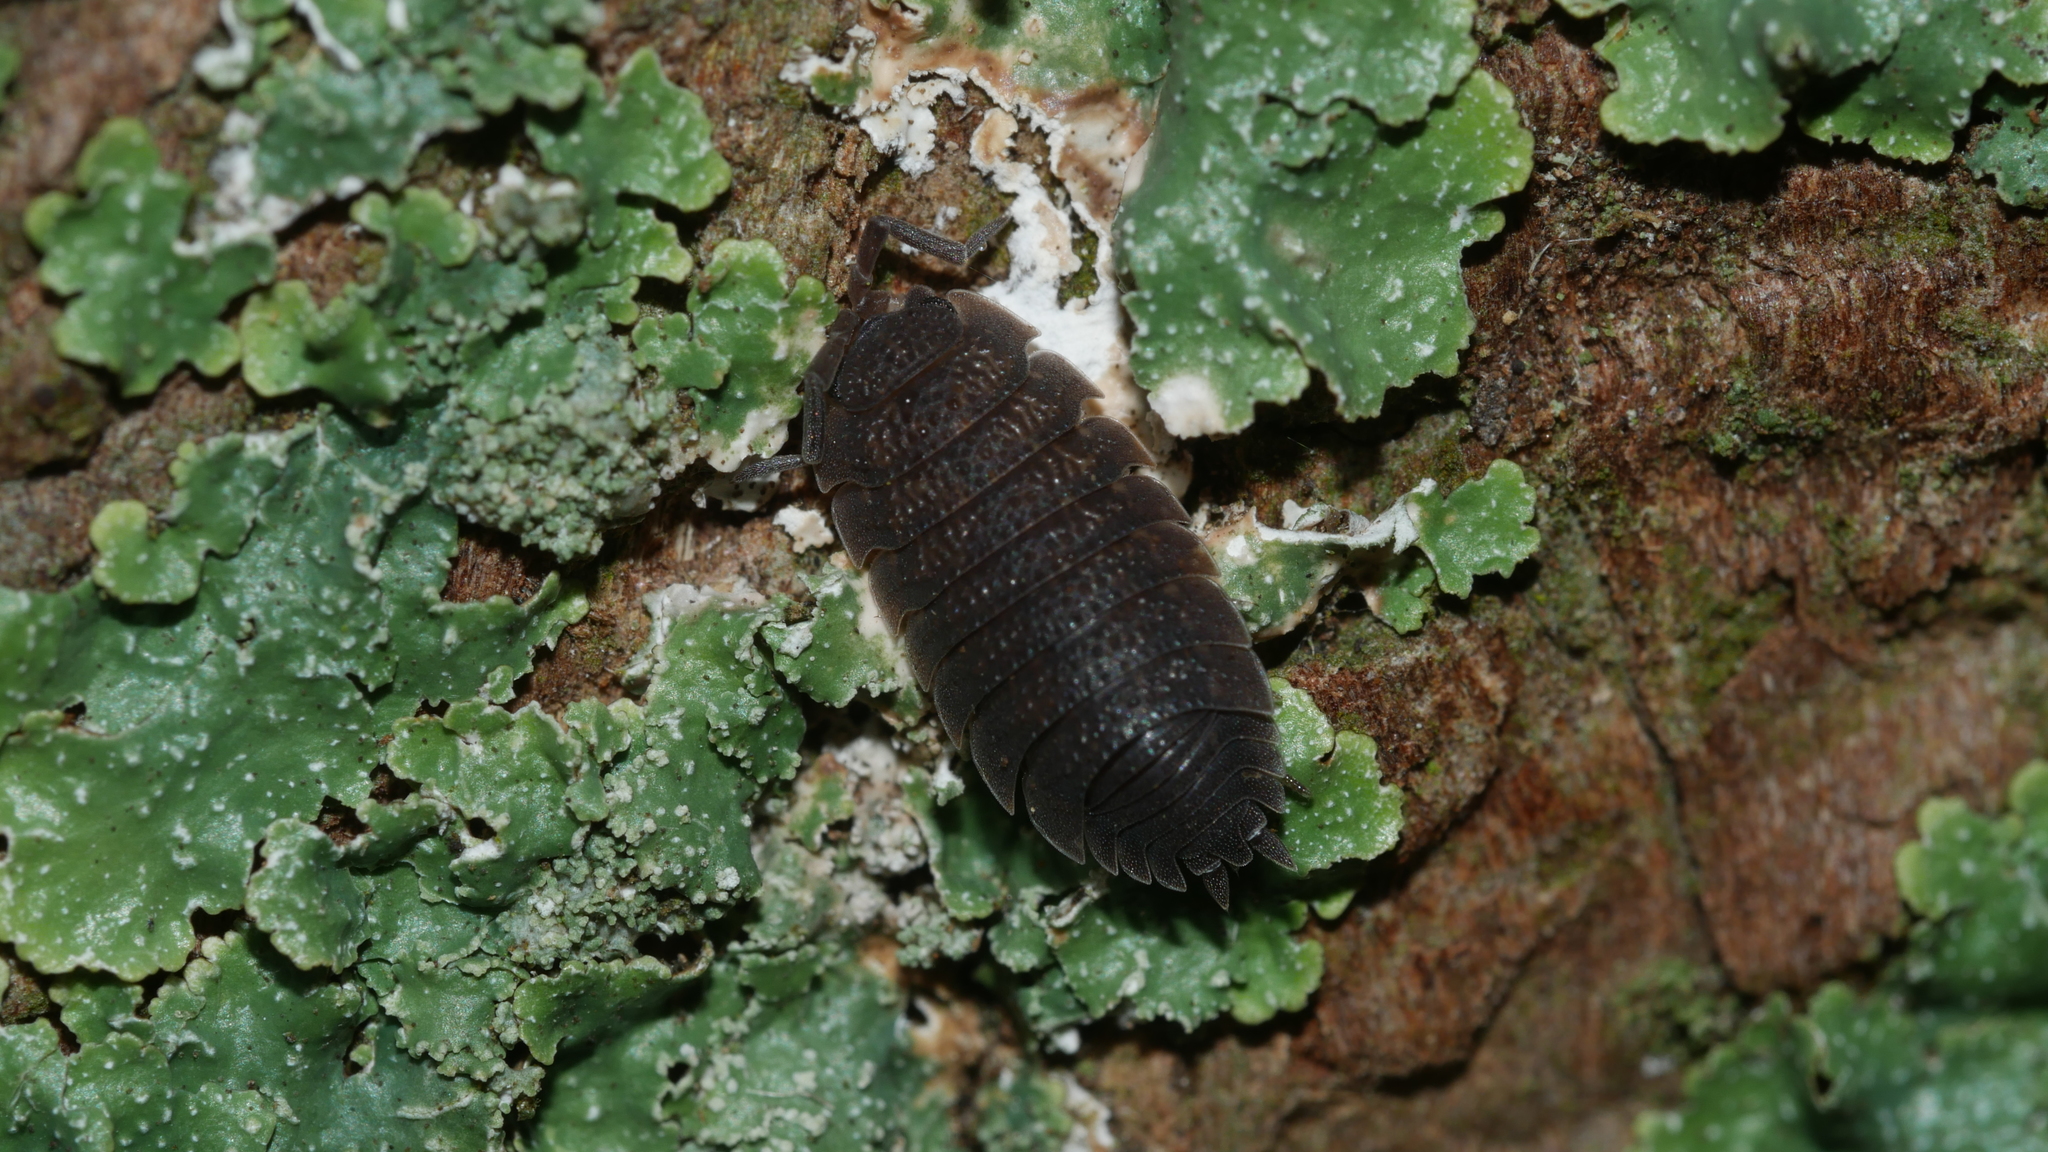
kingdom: Animalia
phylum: Arthropoda
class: Malacostraca
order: Isopoda
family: Porcellionidae
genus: Porcellio
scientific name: Porcellio scaber
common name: Common rough woodlouse
